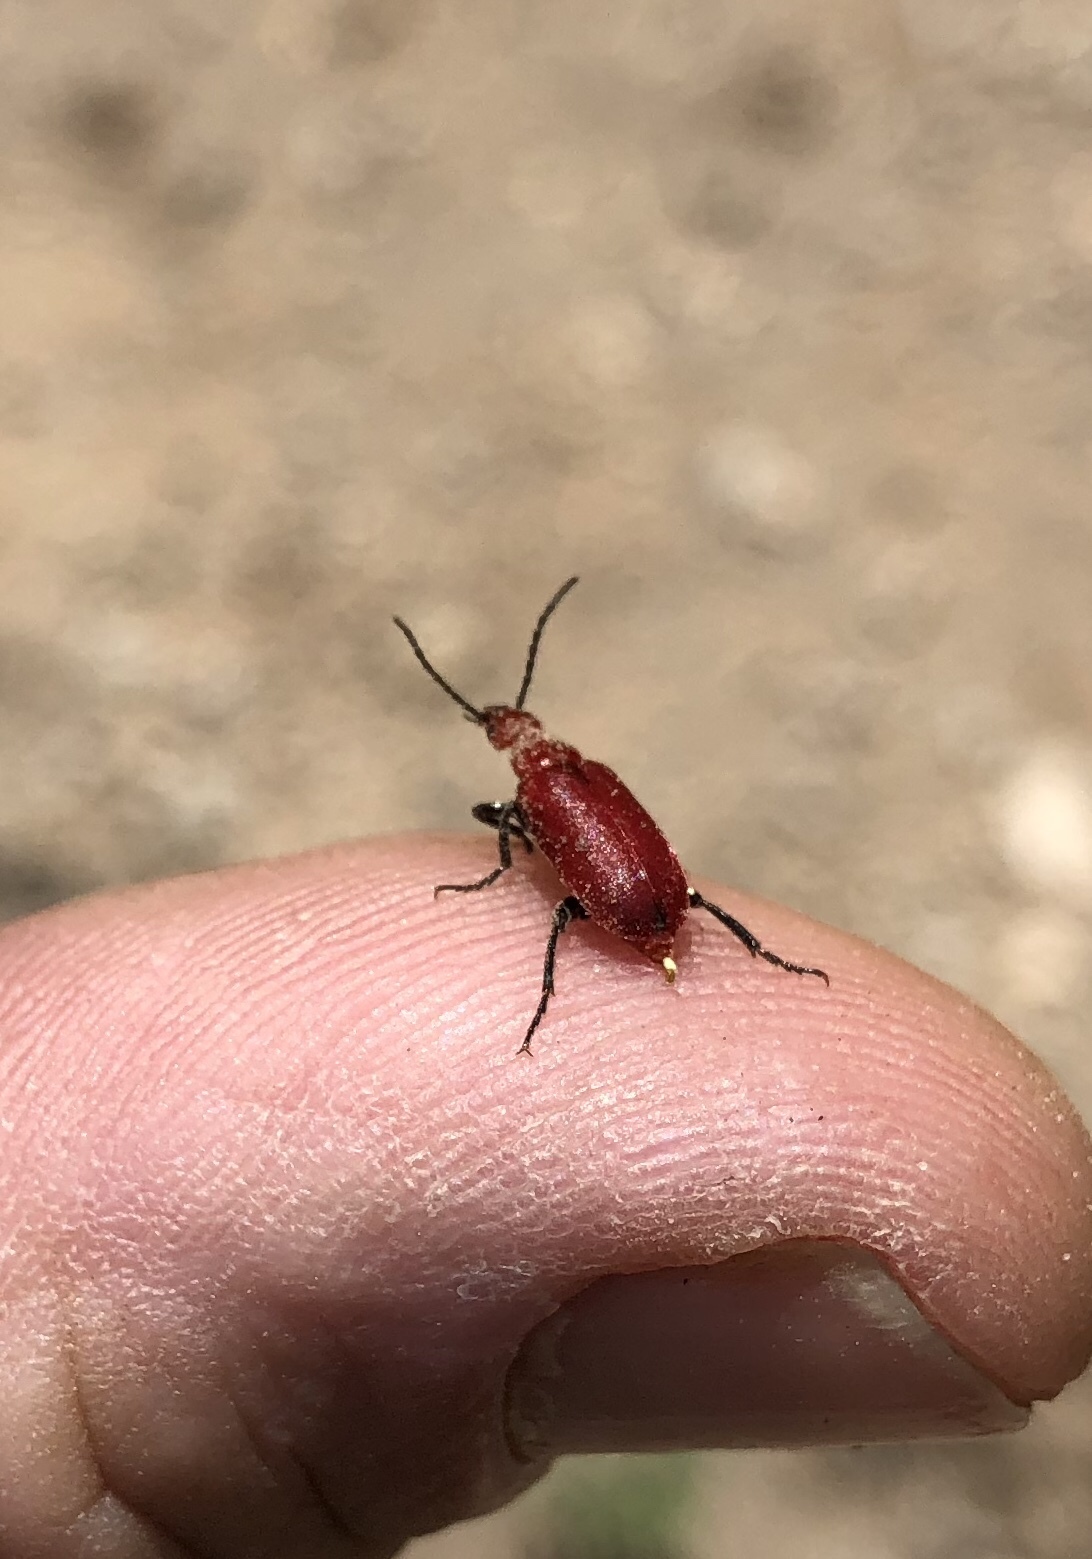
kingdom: Animalia
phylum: Arthropoda
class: Insecta
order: Coleoptera
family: Meloidae
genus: Rhyphonemognatha
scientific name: Rhyphonemognatha rufa
